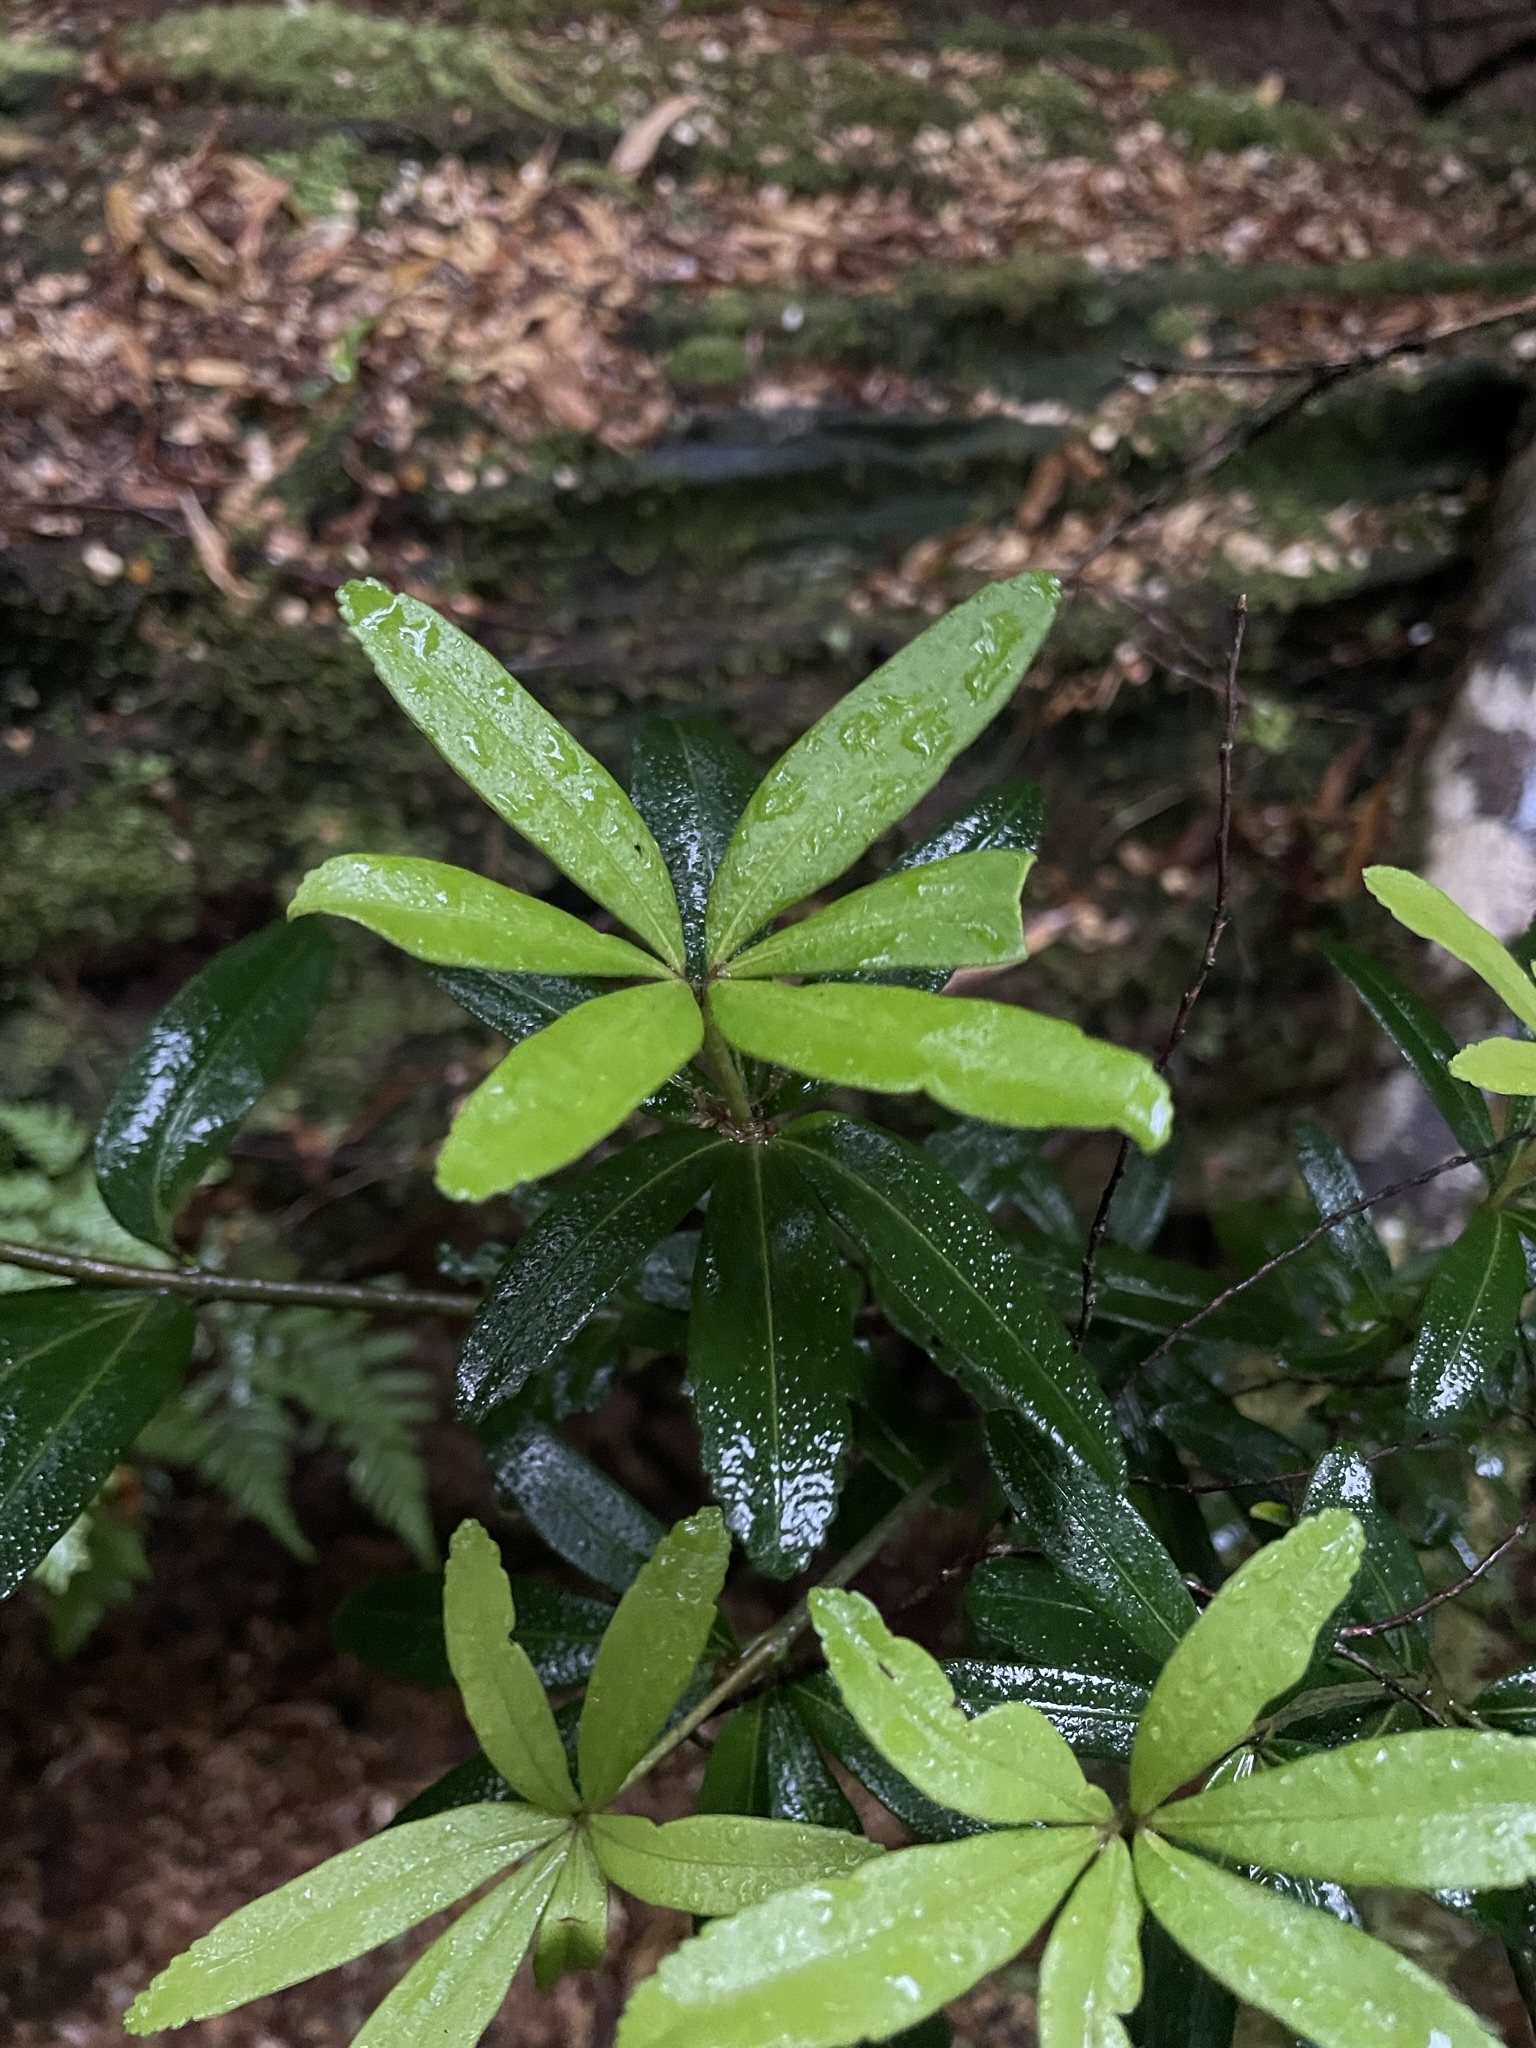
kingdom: Plantae
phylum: Tracheophyta
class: Magnoliopsida
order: Sapindales
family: Rutaceae
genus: Acradenia
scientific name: Acradenia frankliniae
